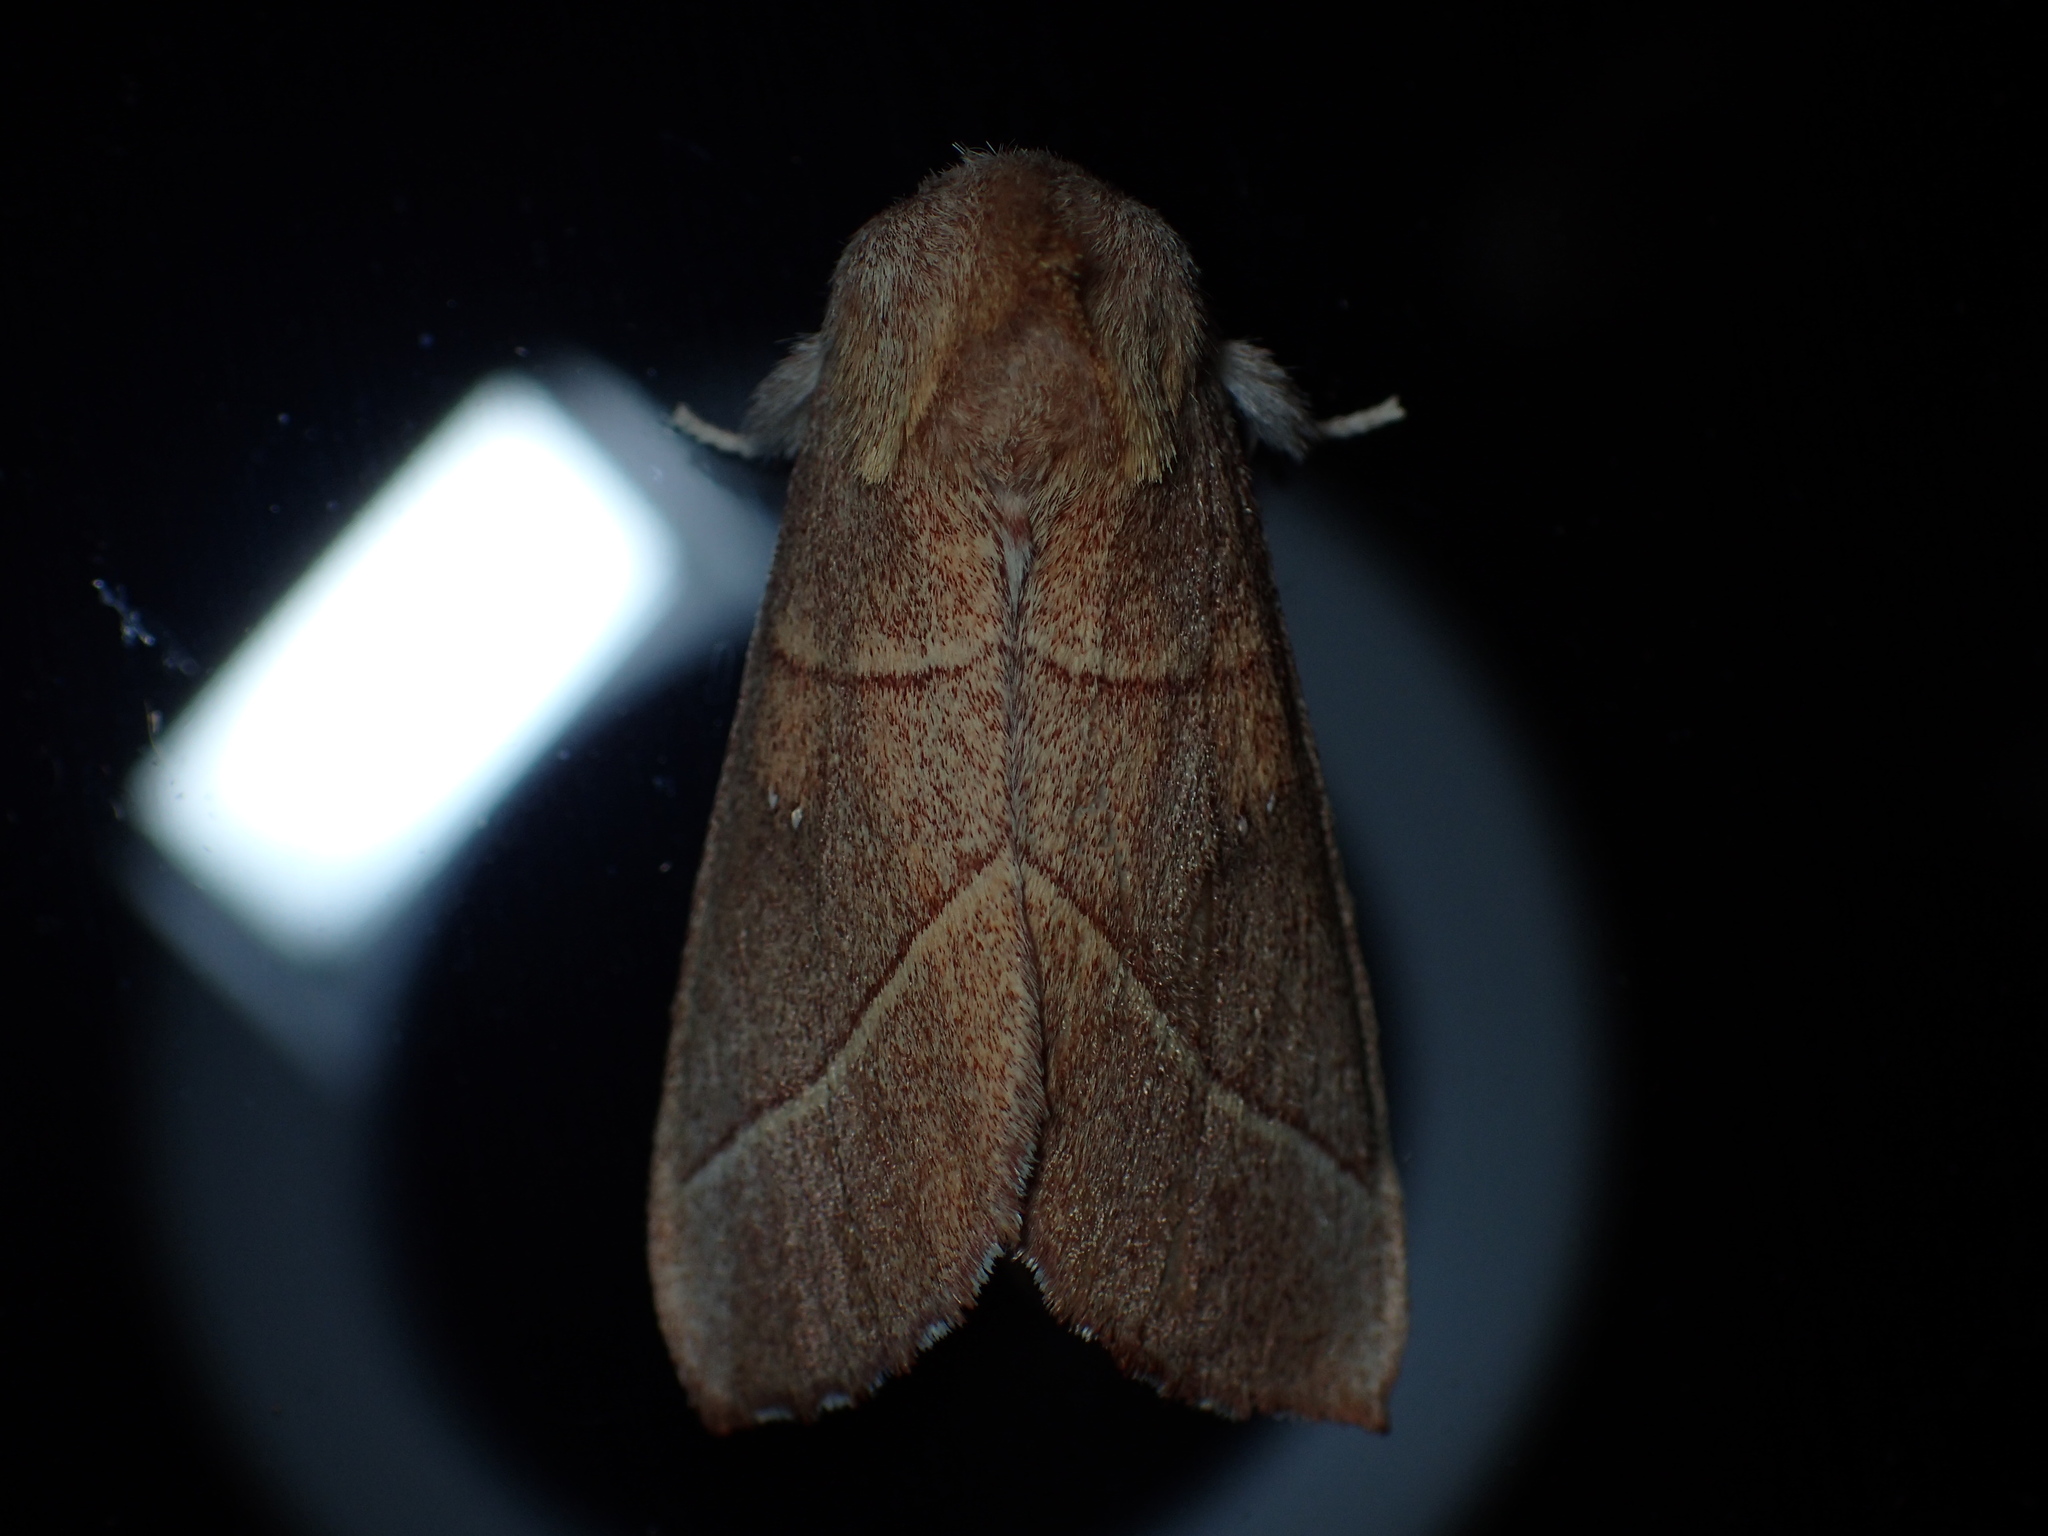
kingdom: Animalia
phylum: Arthropoda
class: Insecta
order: Lepidoptera
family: Notodontidae
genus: Nadata
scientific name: Nadata gibbosa
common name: White-dotted prominent
